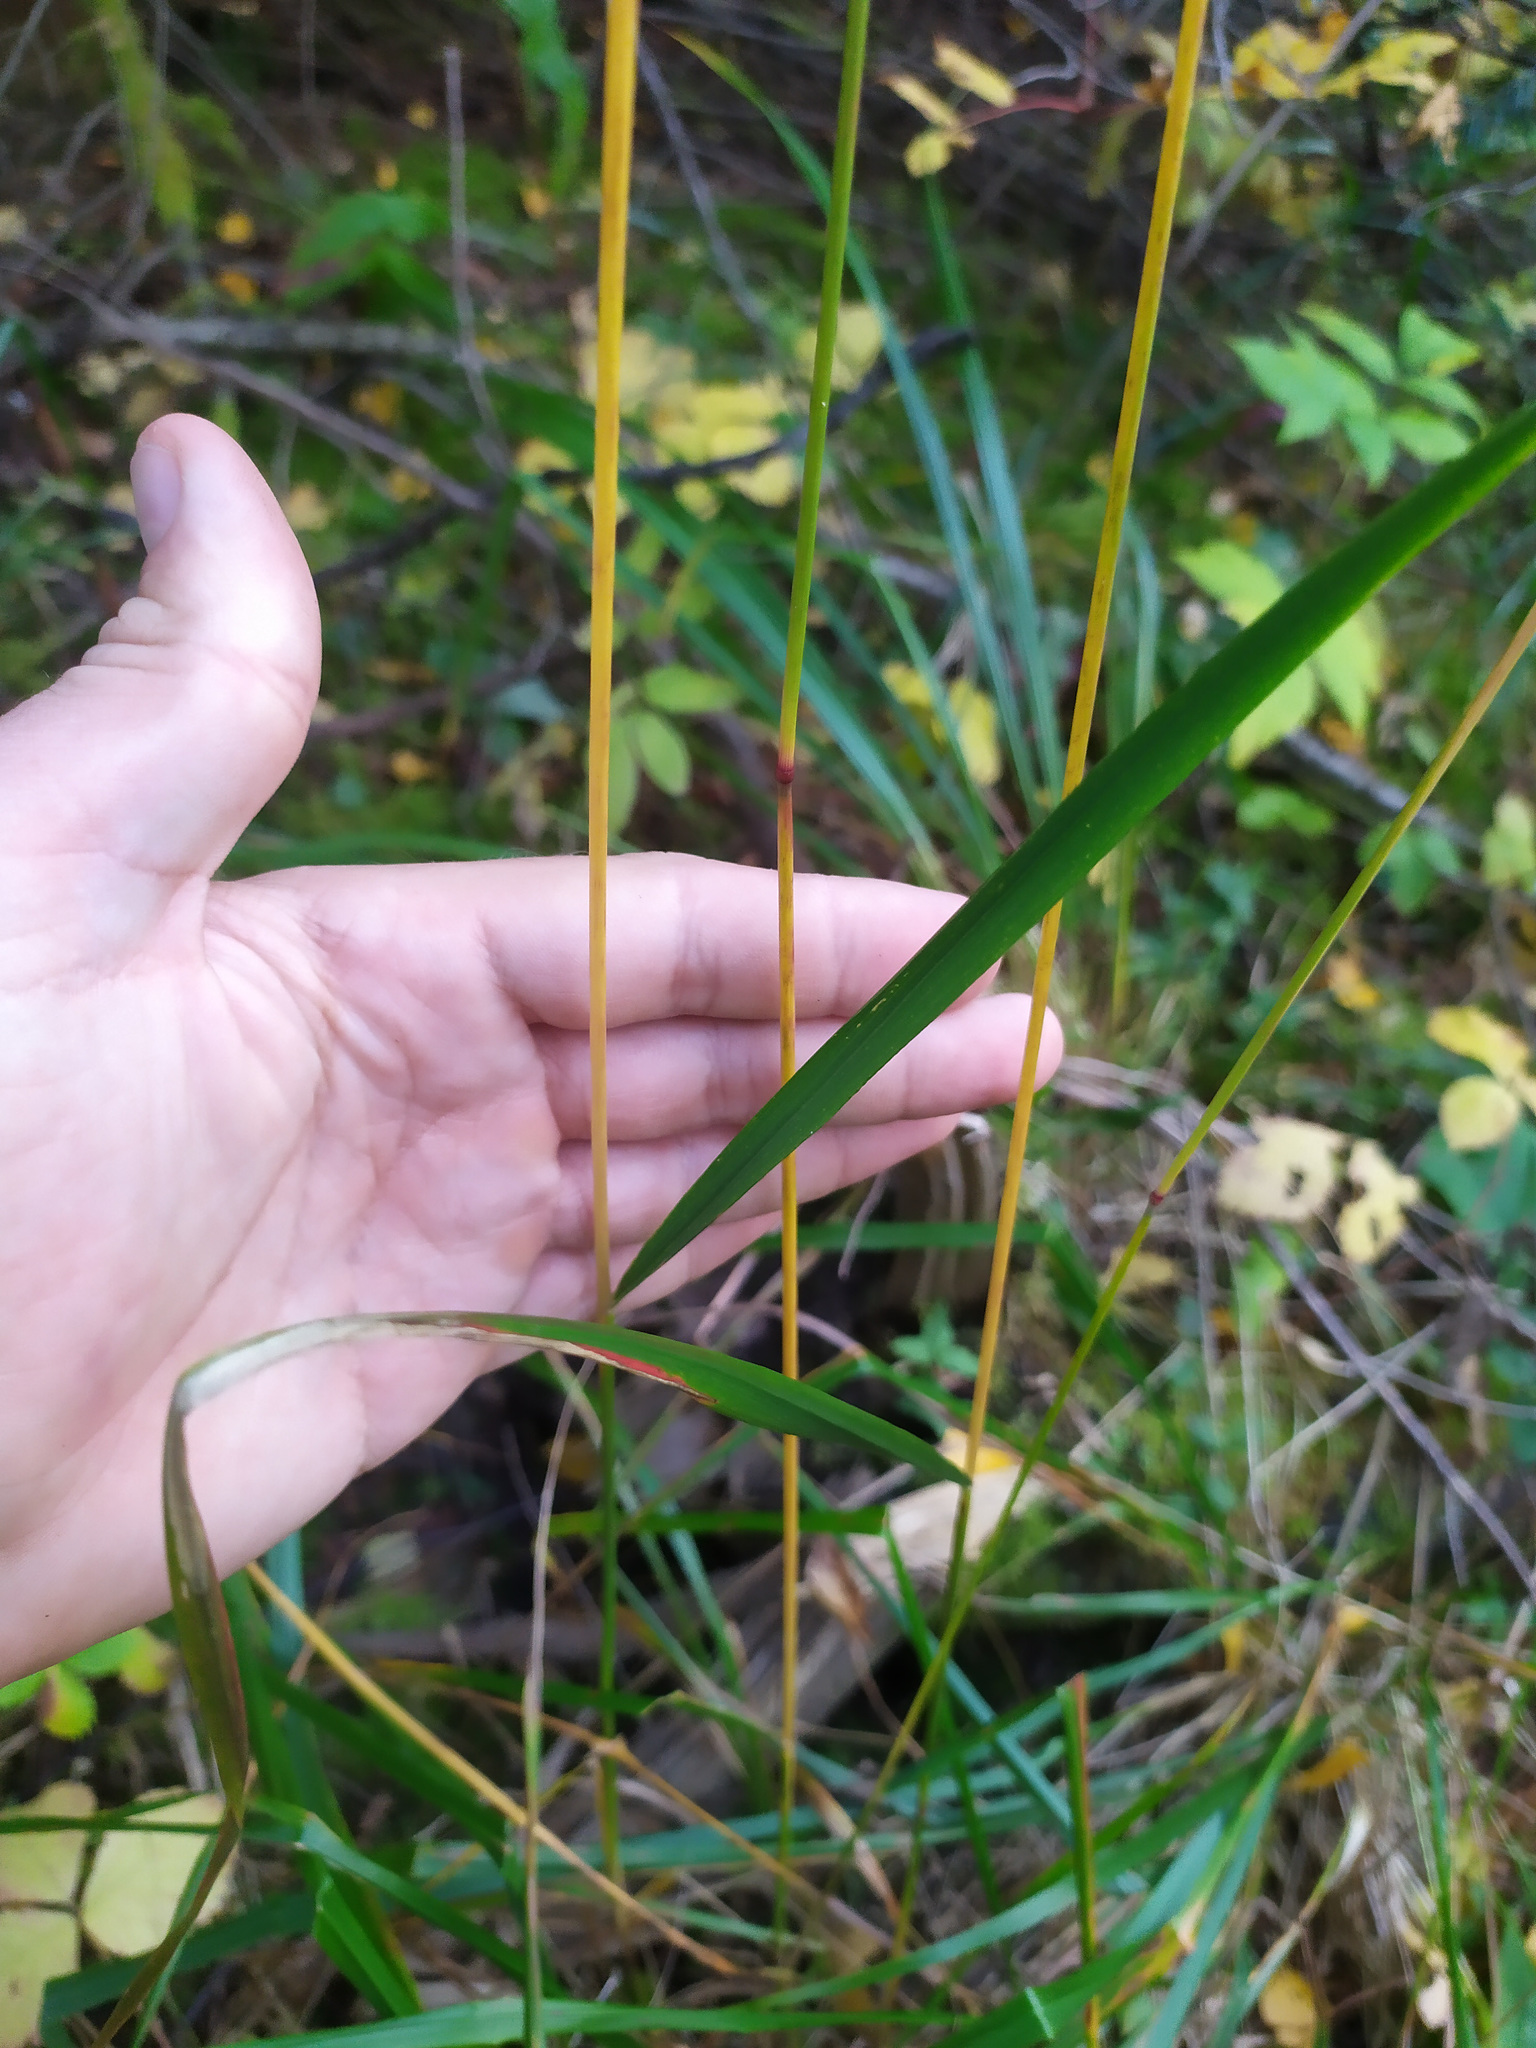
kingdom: Plantae
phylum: Tracheophyta
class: Liliopsida
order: Poales
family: Poaceae
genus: Calamagrostis
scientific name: Calamagrostis arundinacea
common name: Metskastik
